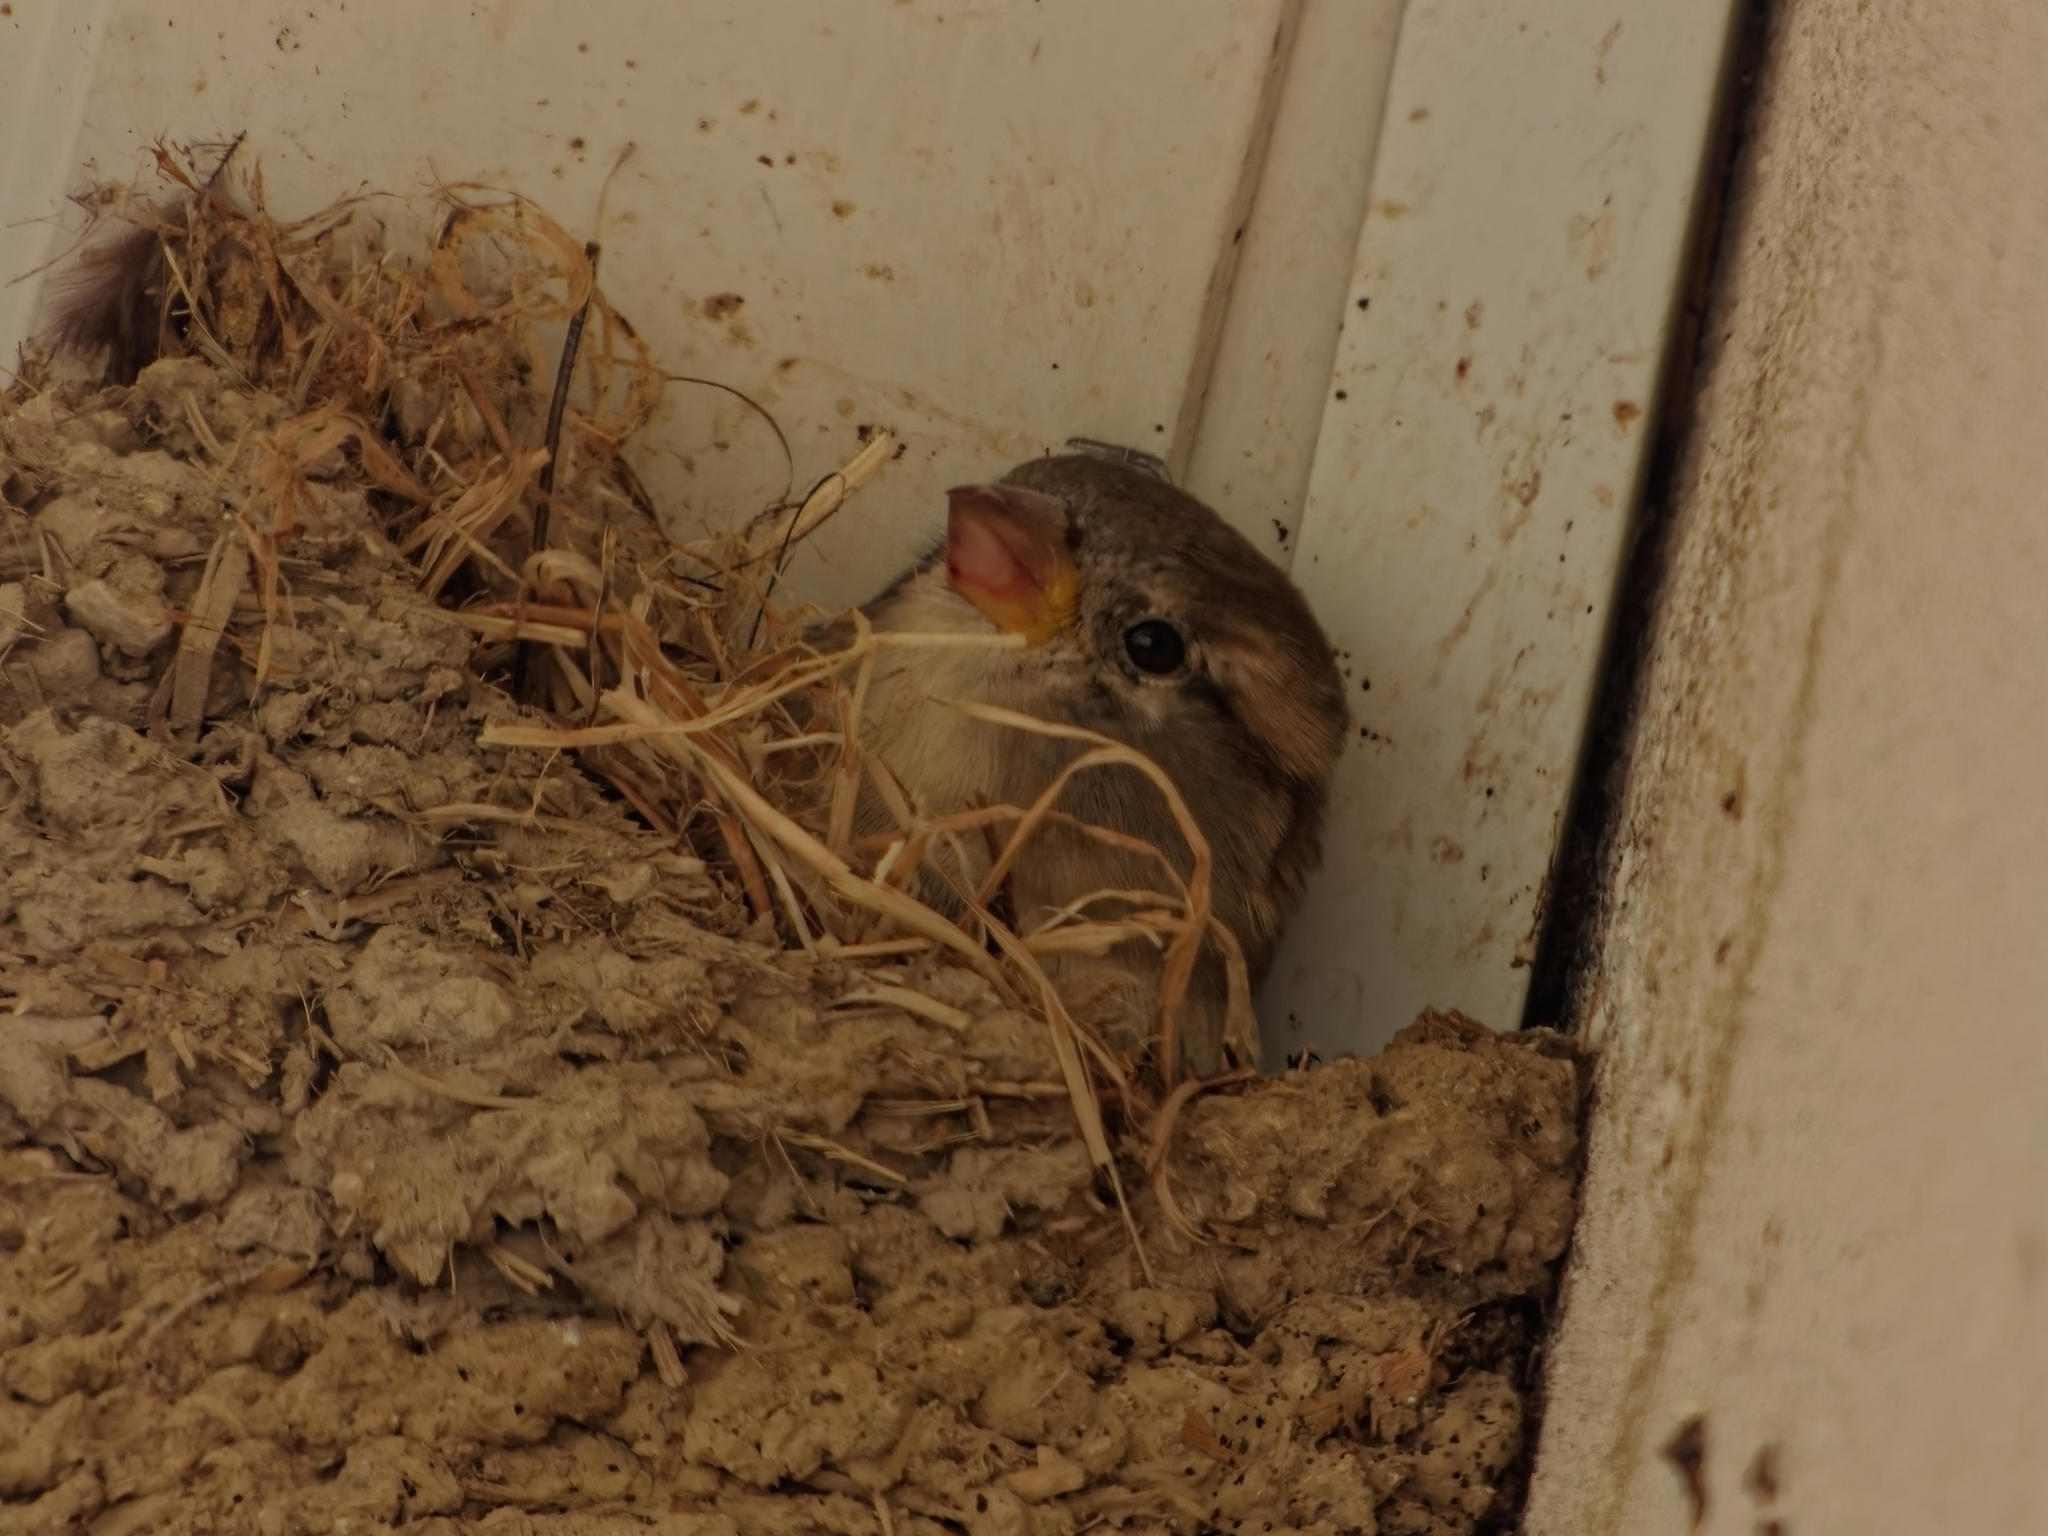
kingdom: Animalia
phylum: Chordata
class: Aves
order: Passeriformes
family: Passeridae
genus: Passer
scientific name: Passer domesticus
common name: House sparrow
